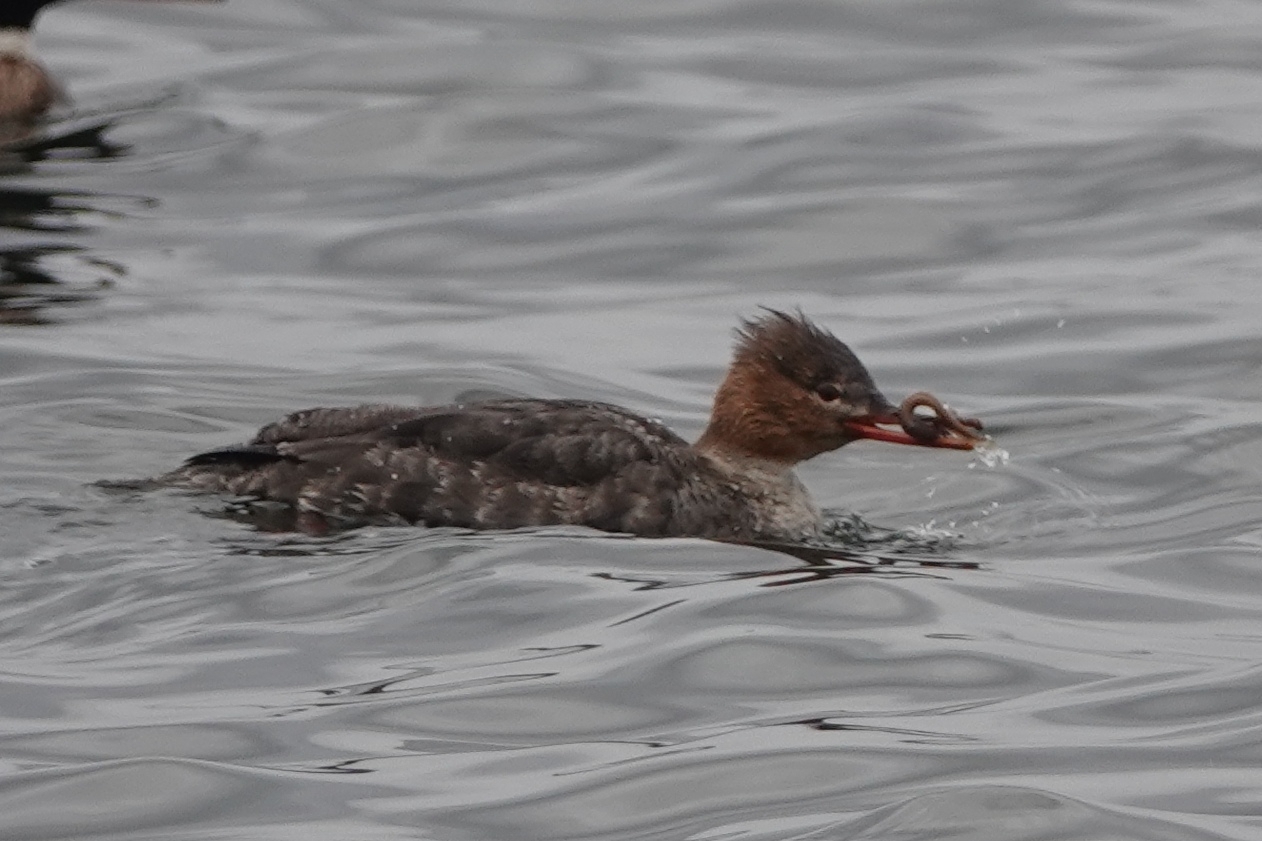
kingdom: Animalia
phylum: Chordata
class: Aves
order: Anseriformes
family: Anatidae
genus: Mergus
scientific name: Mergus serrator
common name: Red-breasted merganser
